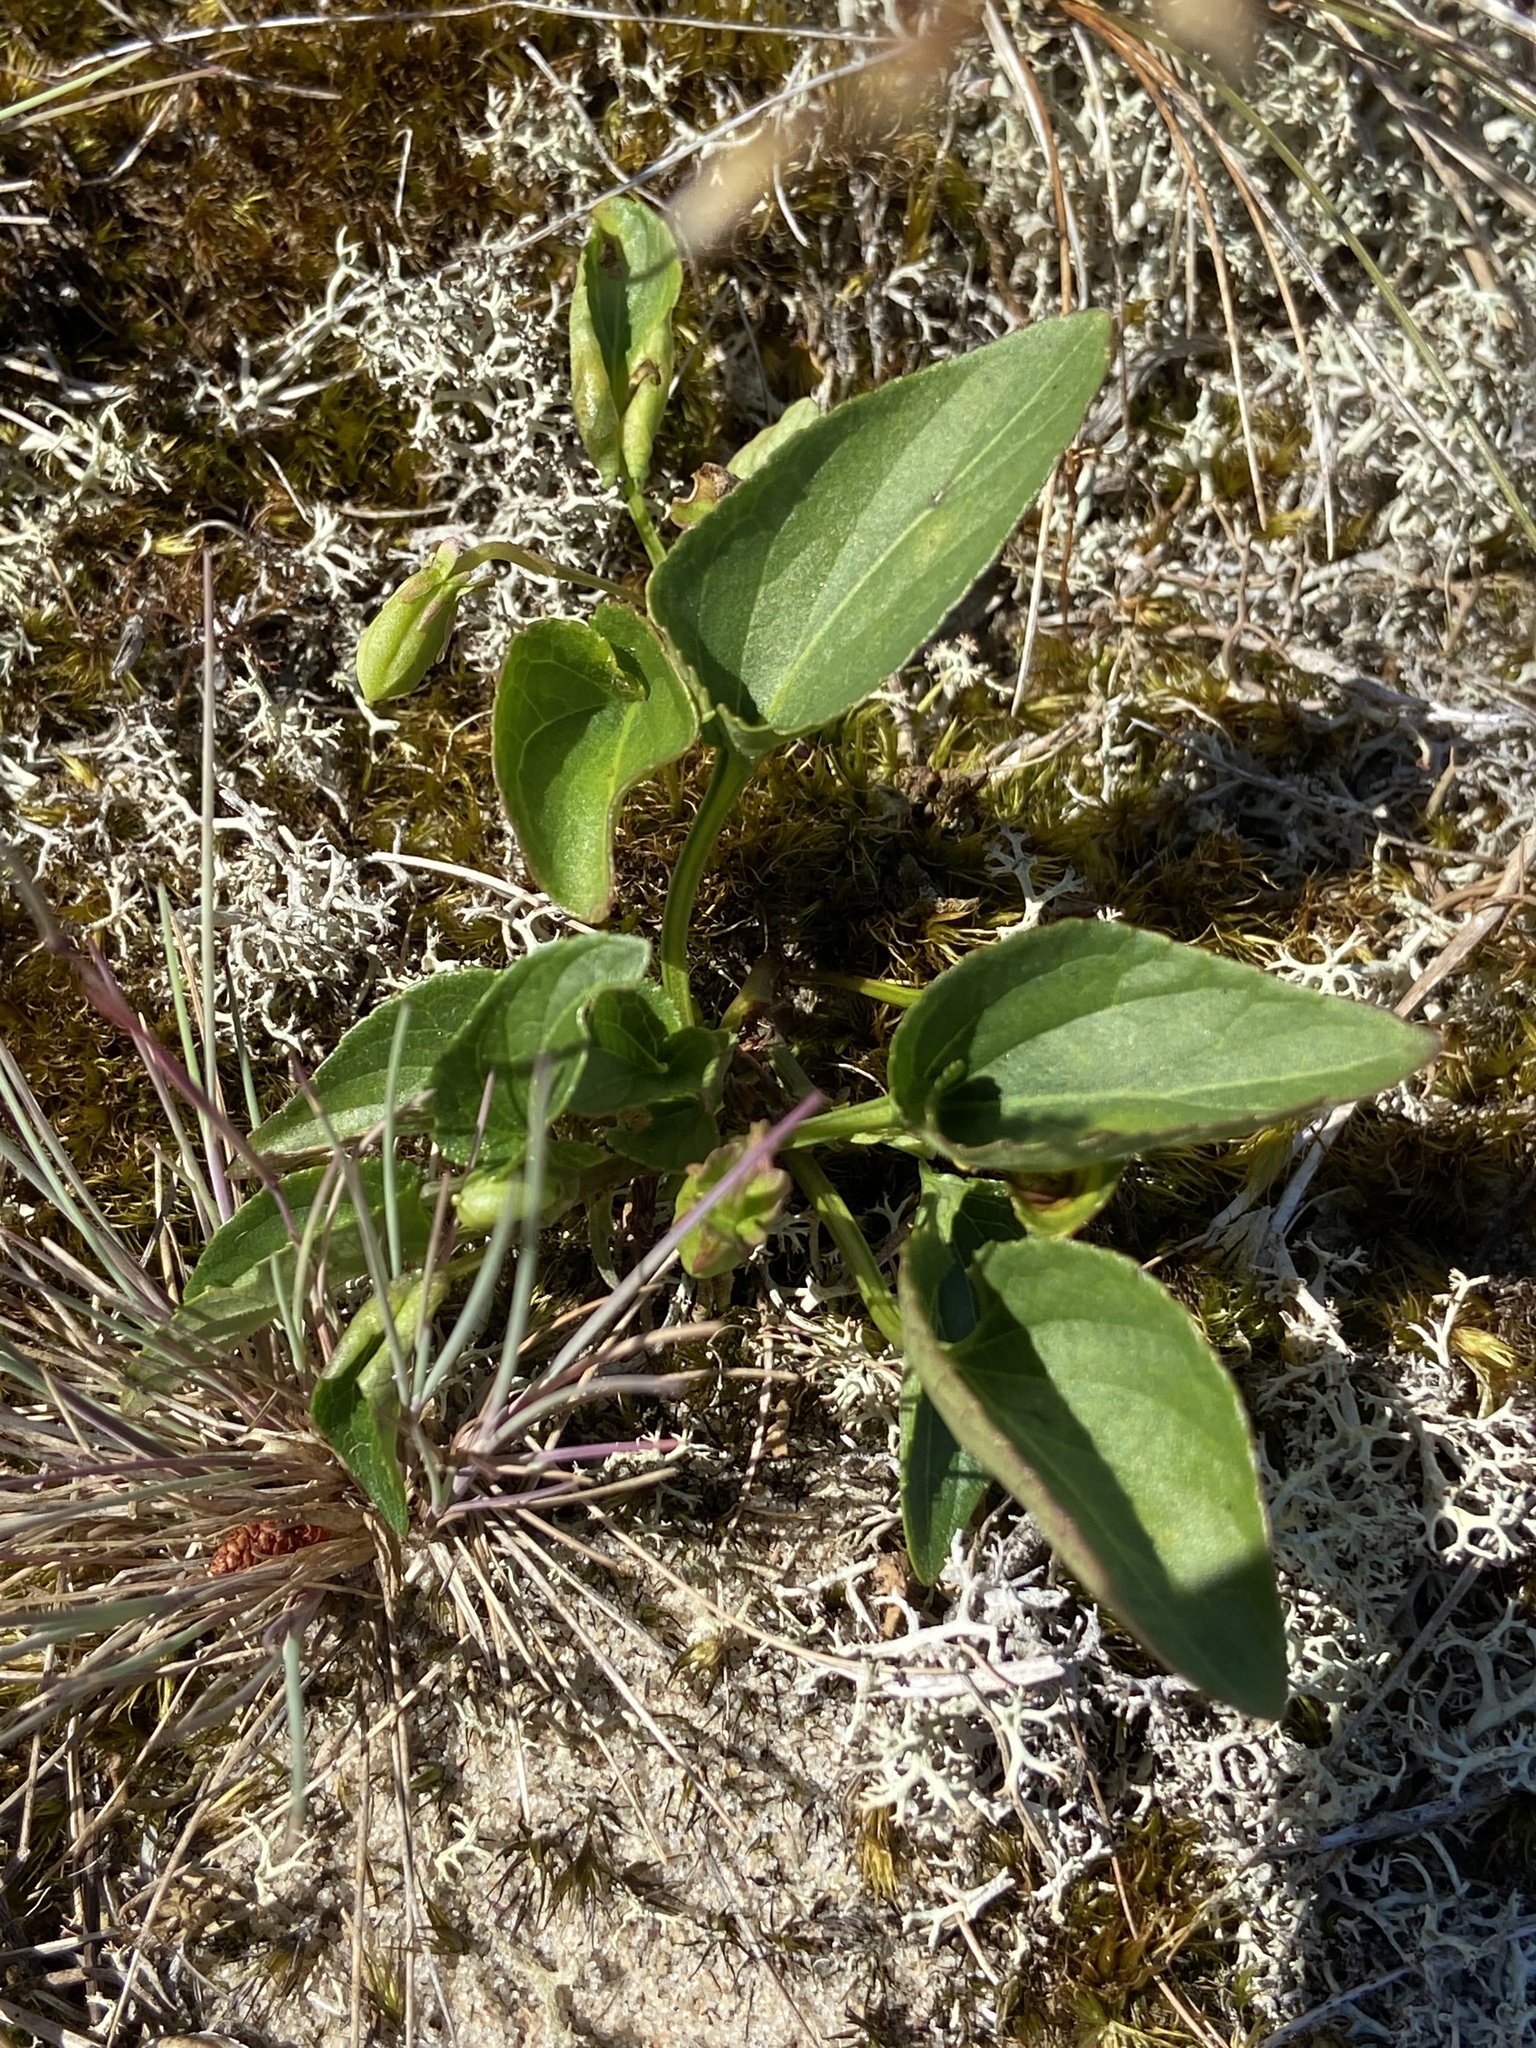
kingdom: Plantae
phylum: Tracheophyta
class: Magnoliopsida
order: Malpighiales
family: Violaceae
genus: Viola
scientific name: Viola canina
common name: Heath dog-violet
